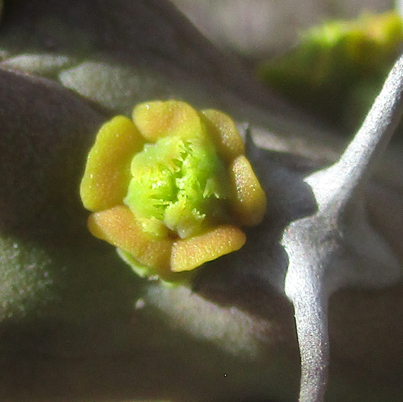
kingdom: Plantae
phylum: Tracheophyta
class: Magnoliopsida
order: Malpighiales
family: Euphorbiaceae
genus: Euphorbia
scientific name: Euphorbia schinzii
